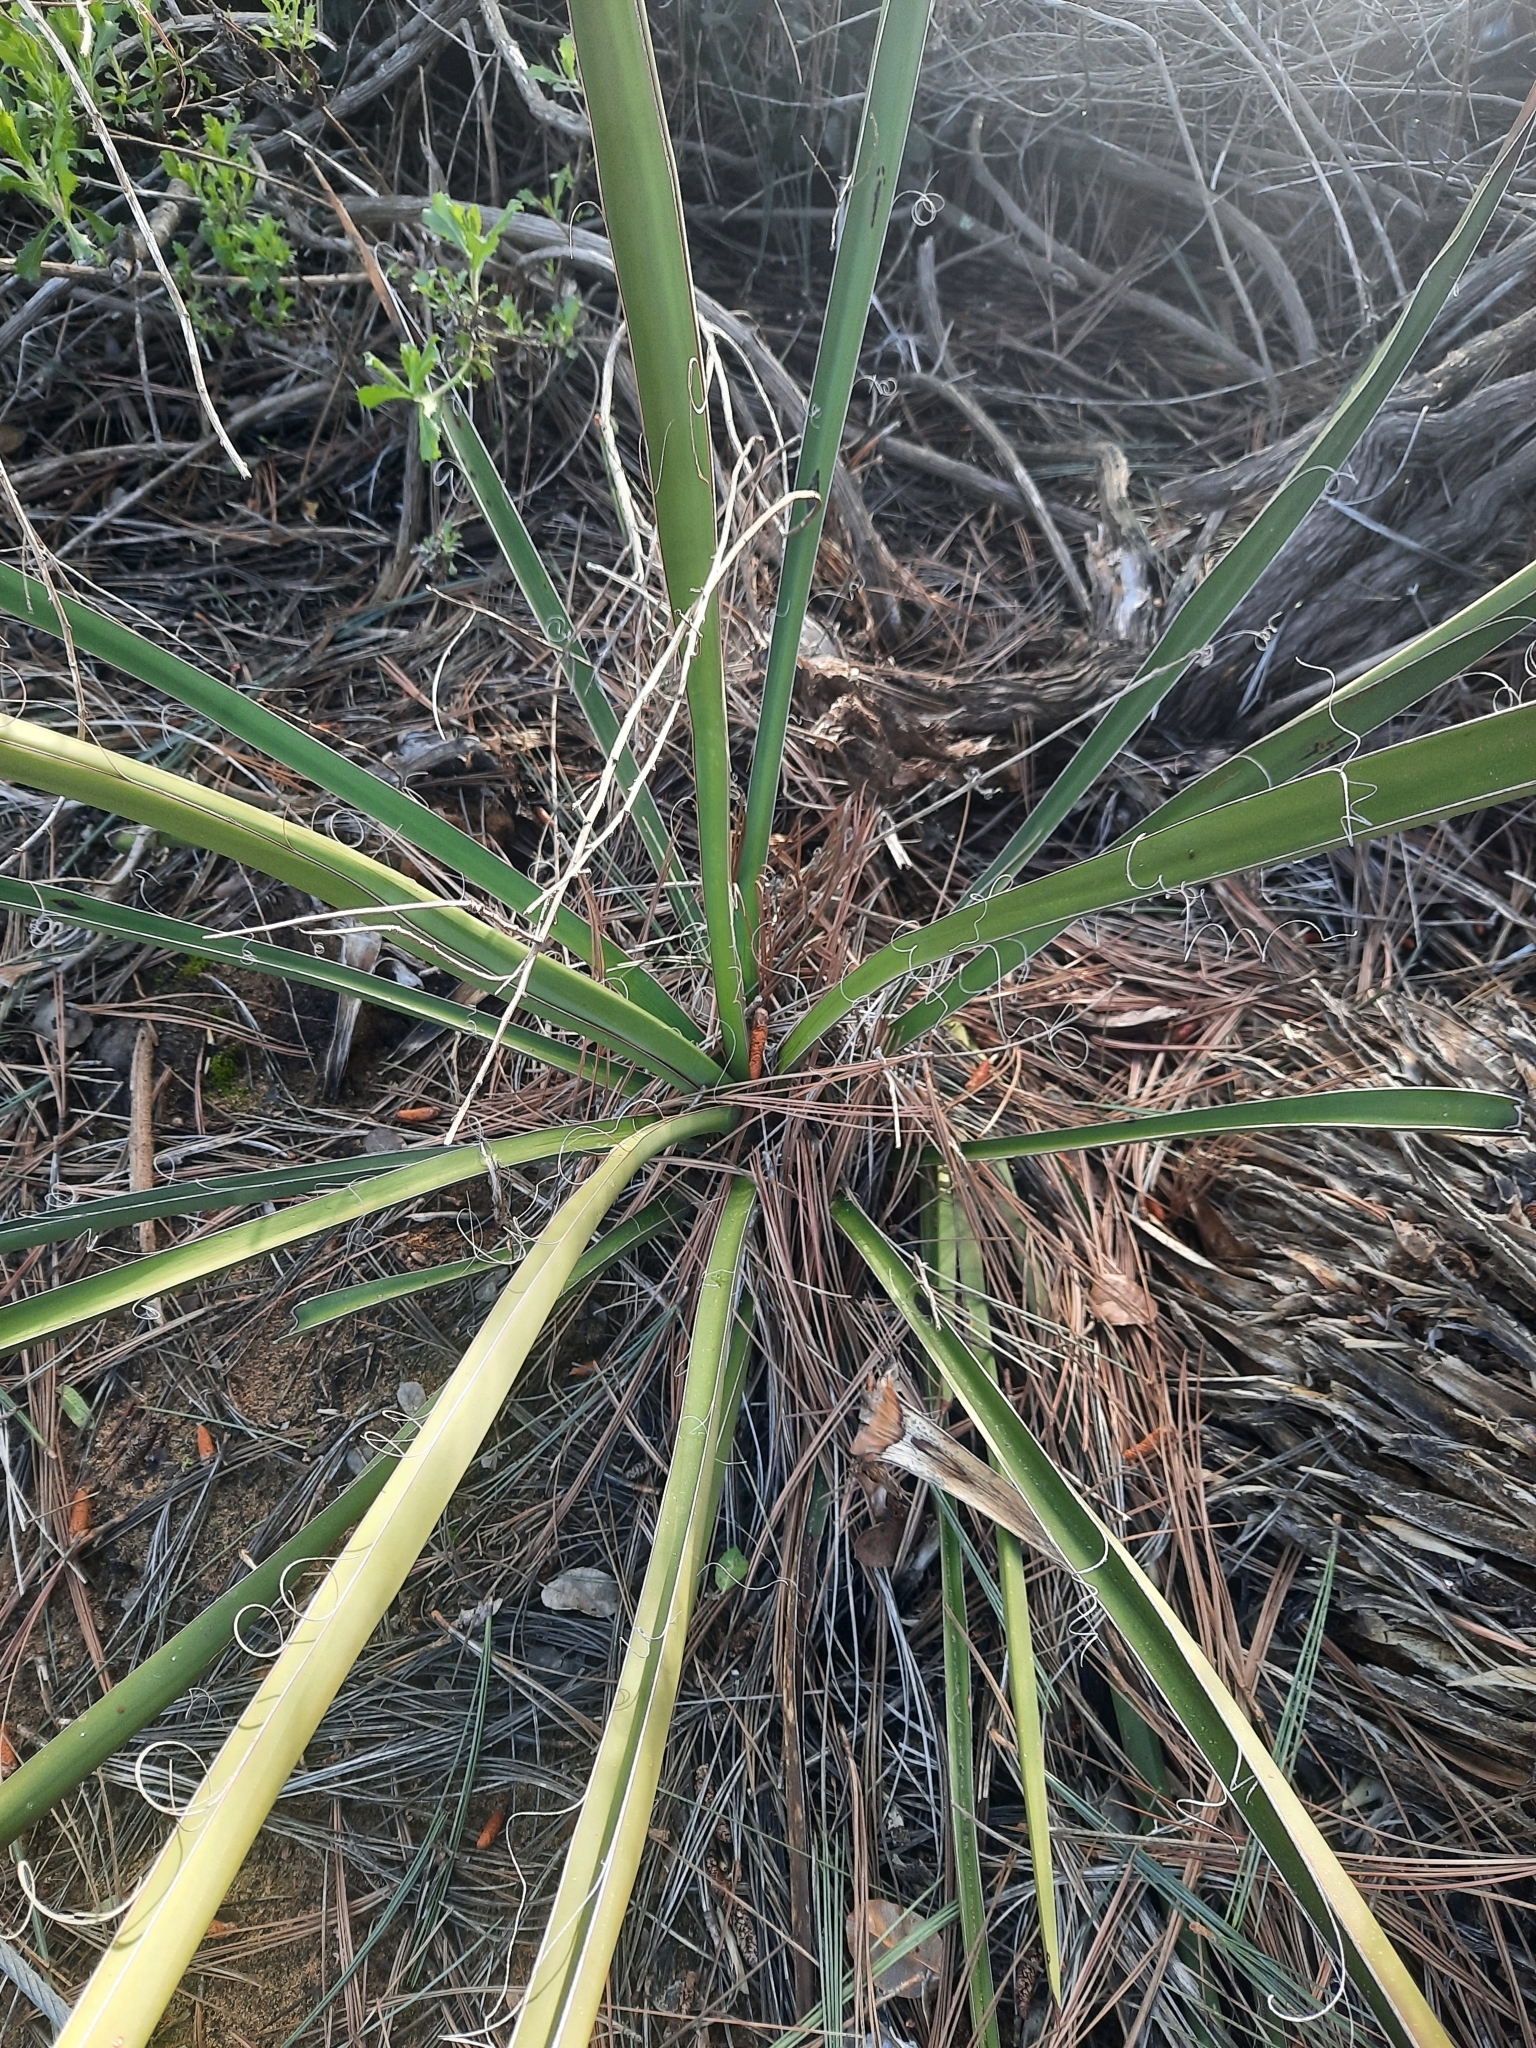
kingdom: Plantae
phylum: Tracheophyta
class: Liliopsida
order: Asparagales
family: Asparagaceae
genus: Yucca
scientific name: Yucca schidigera
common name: Mojave yucca
